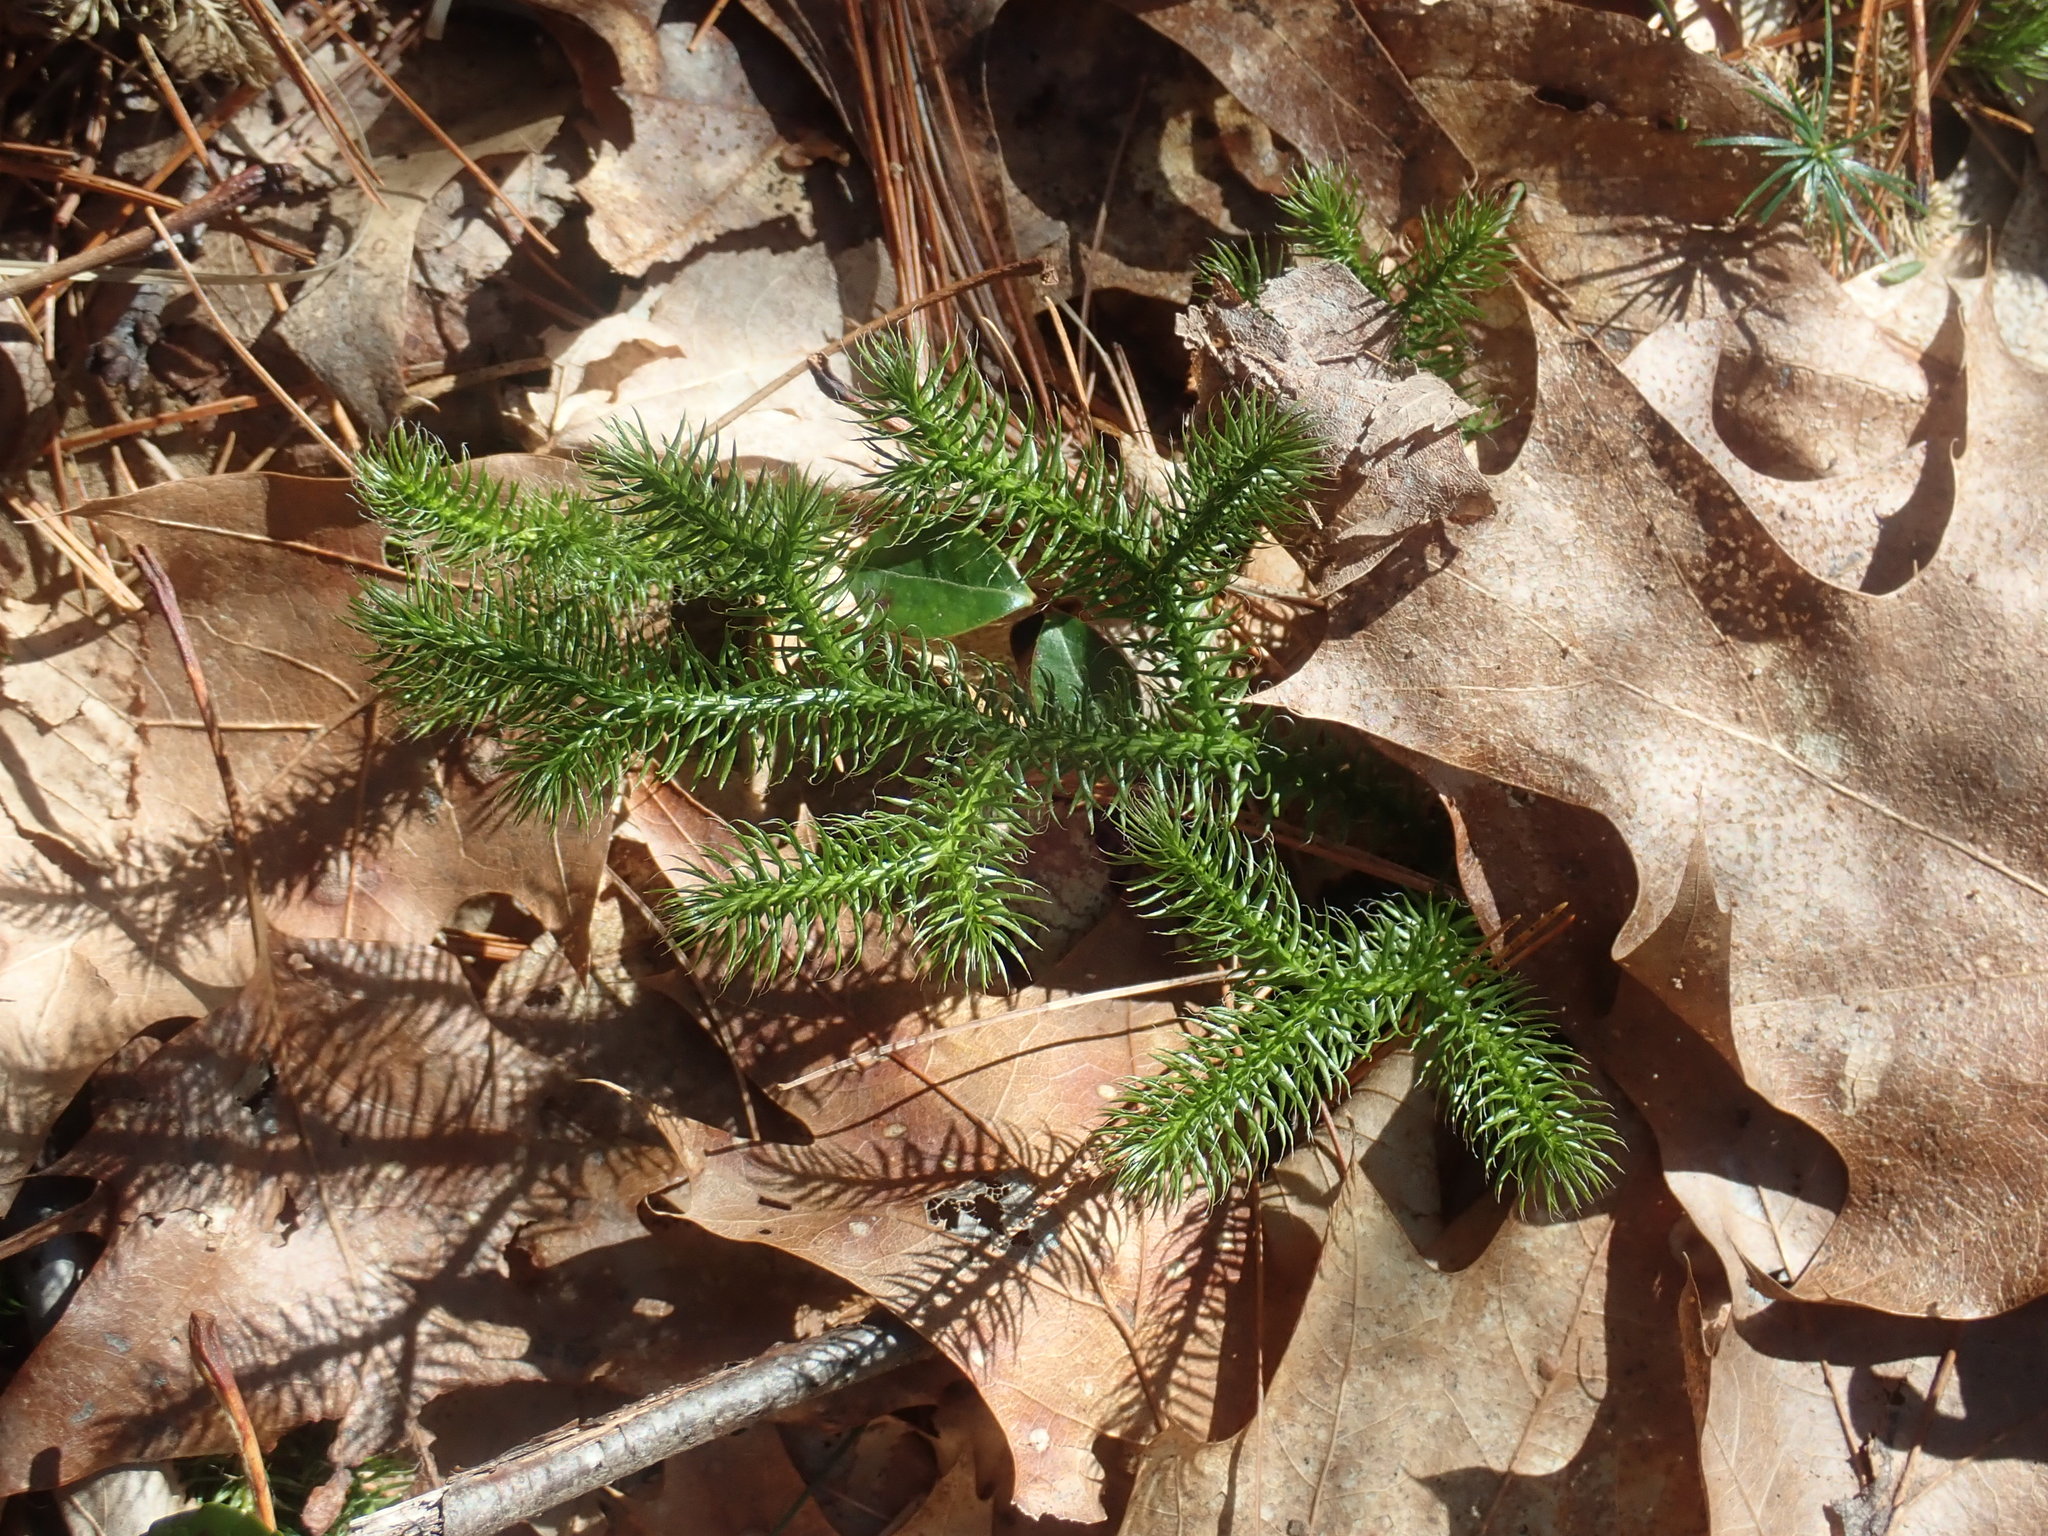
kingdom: Plantae
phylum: Tracheophyta
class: Lycopodiopsida
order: Lycopodiales
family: Lycopodiaceae
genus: Lycopodium
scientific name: Lycopodium clavatum
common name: Stag's-horn clubmoss
